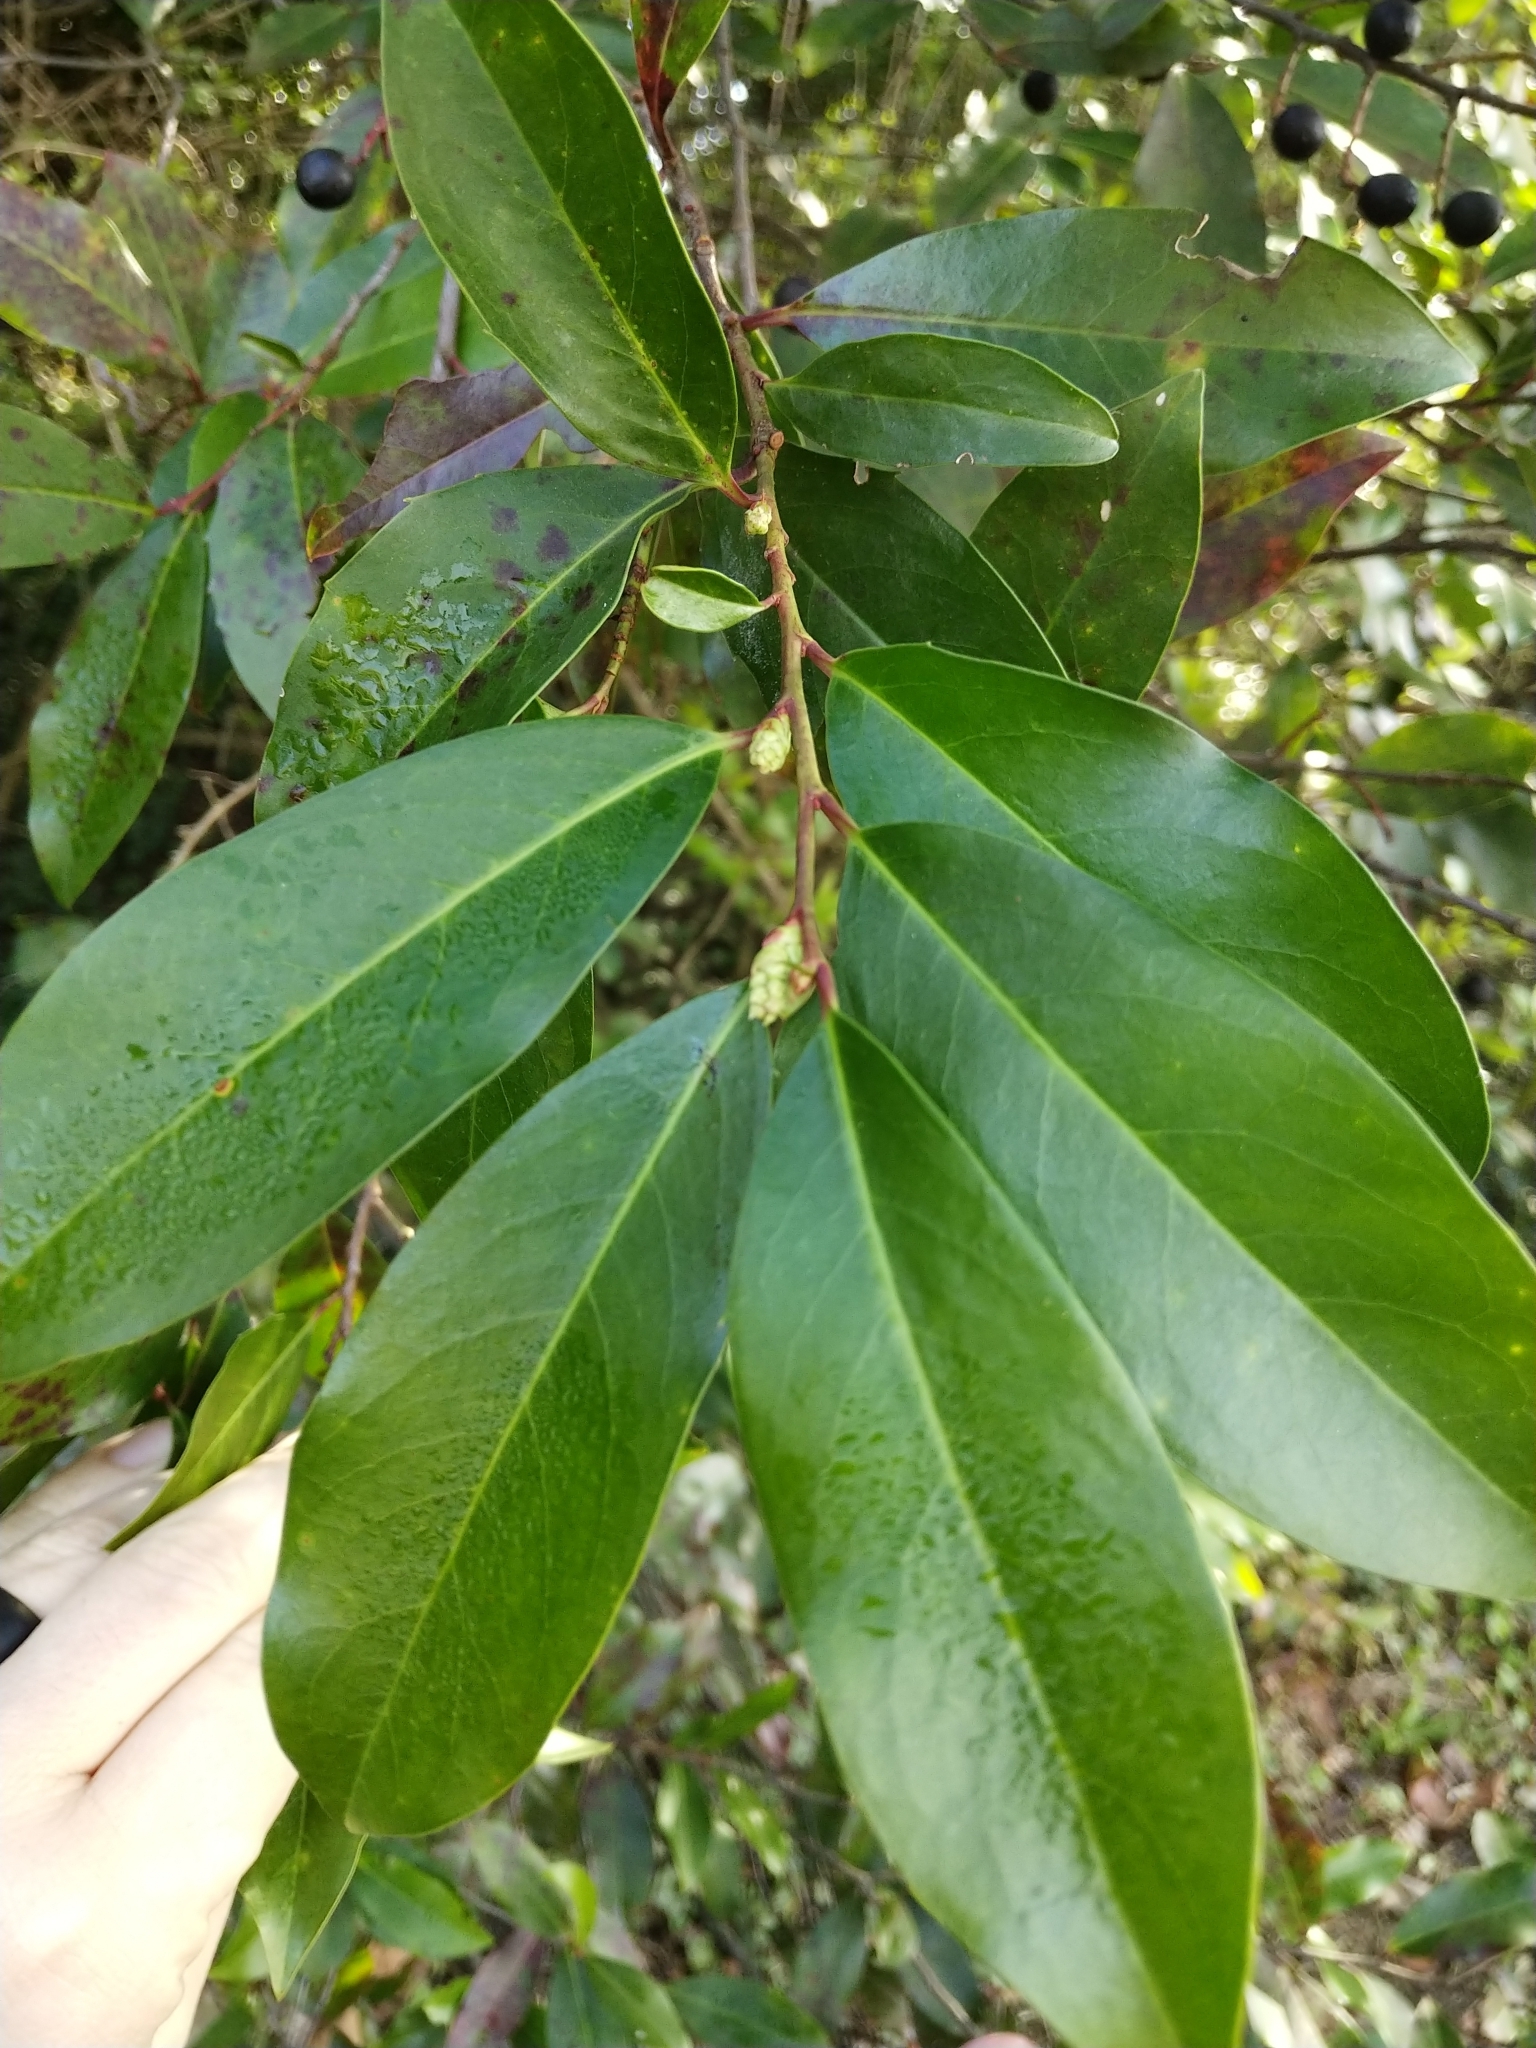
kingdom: Plantae
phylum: Tracheophyta
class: Magnoliopsida
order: Rosales
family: Rosaceae
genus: Prunus
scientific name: Prunus caroliniana
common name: Carolina laurel cherry
